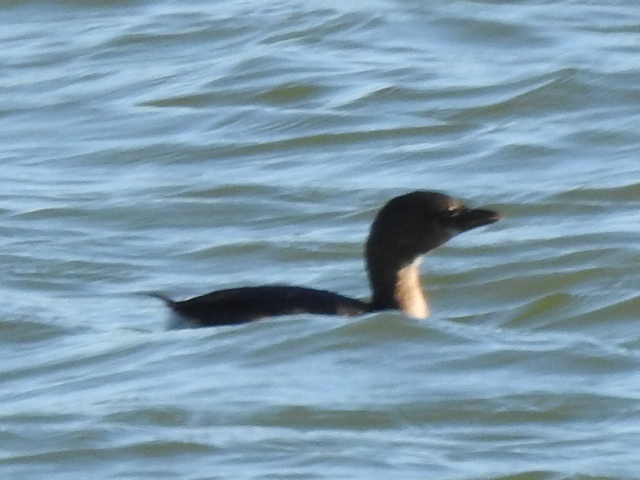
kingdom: Animalia
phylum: Chordata
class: Aves
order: Podicipediformes
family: Podicipedidae
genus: Podilymbus
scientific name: Podilymbus podiceps
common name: Pied-billed grebe
